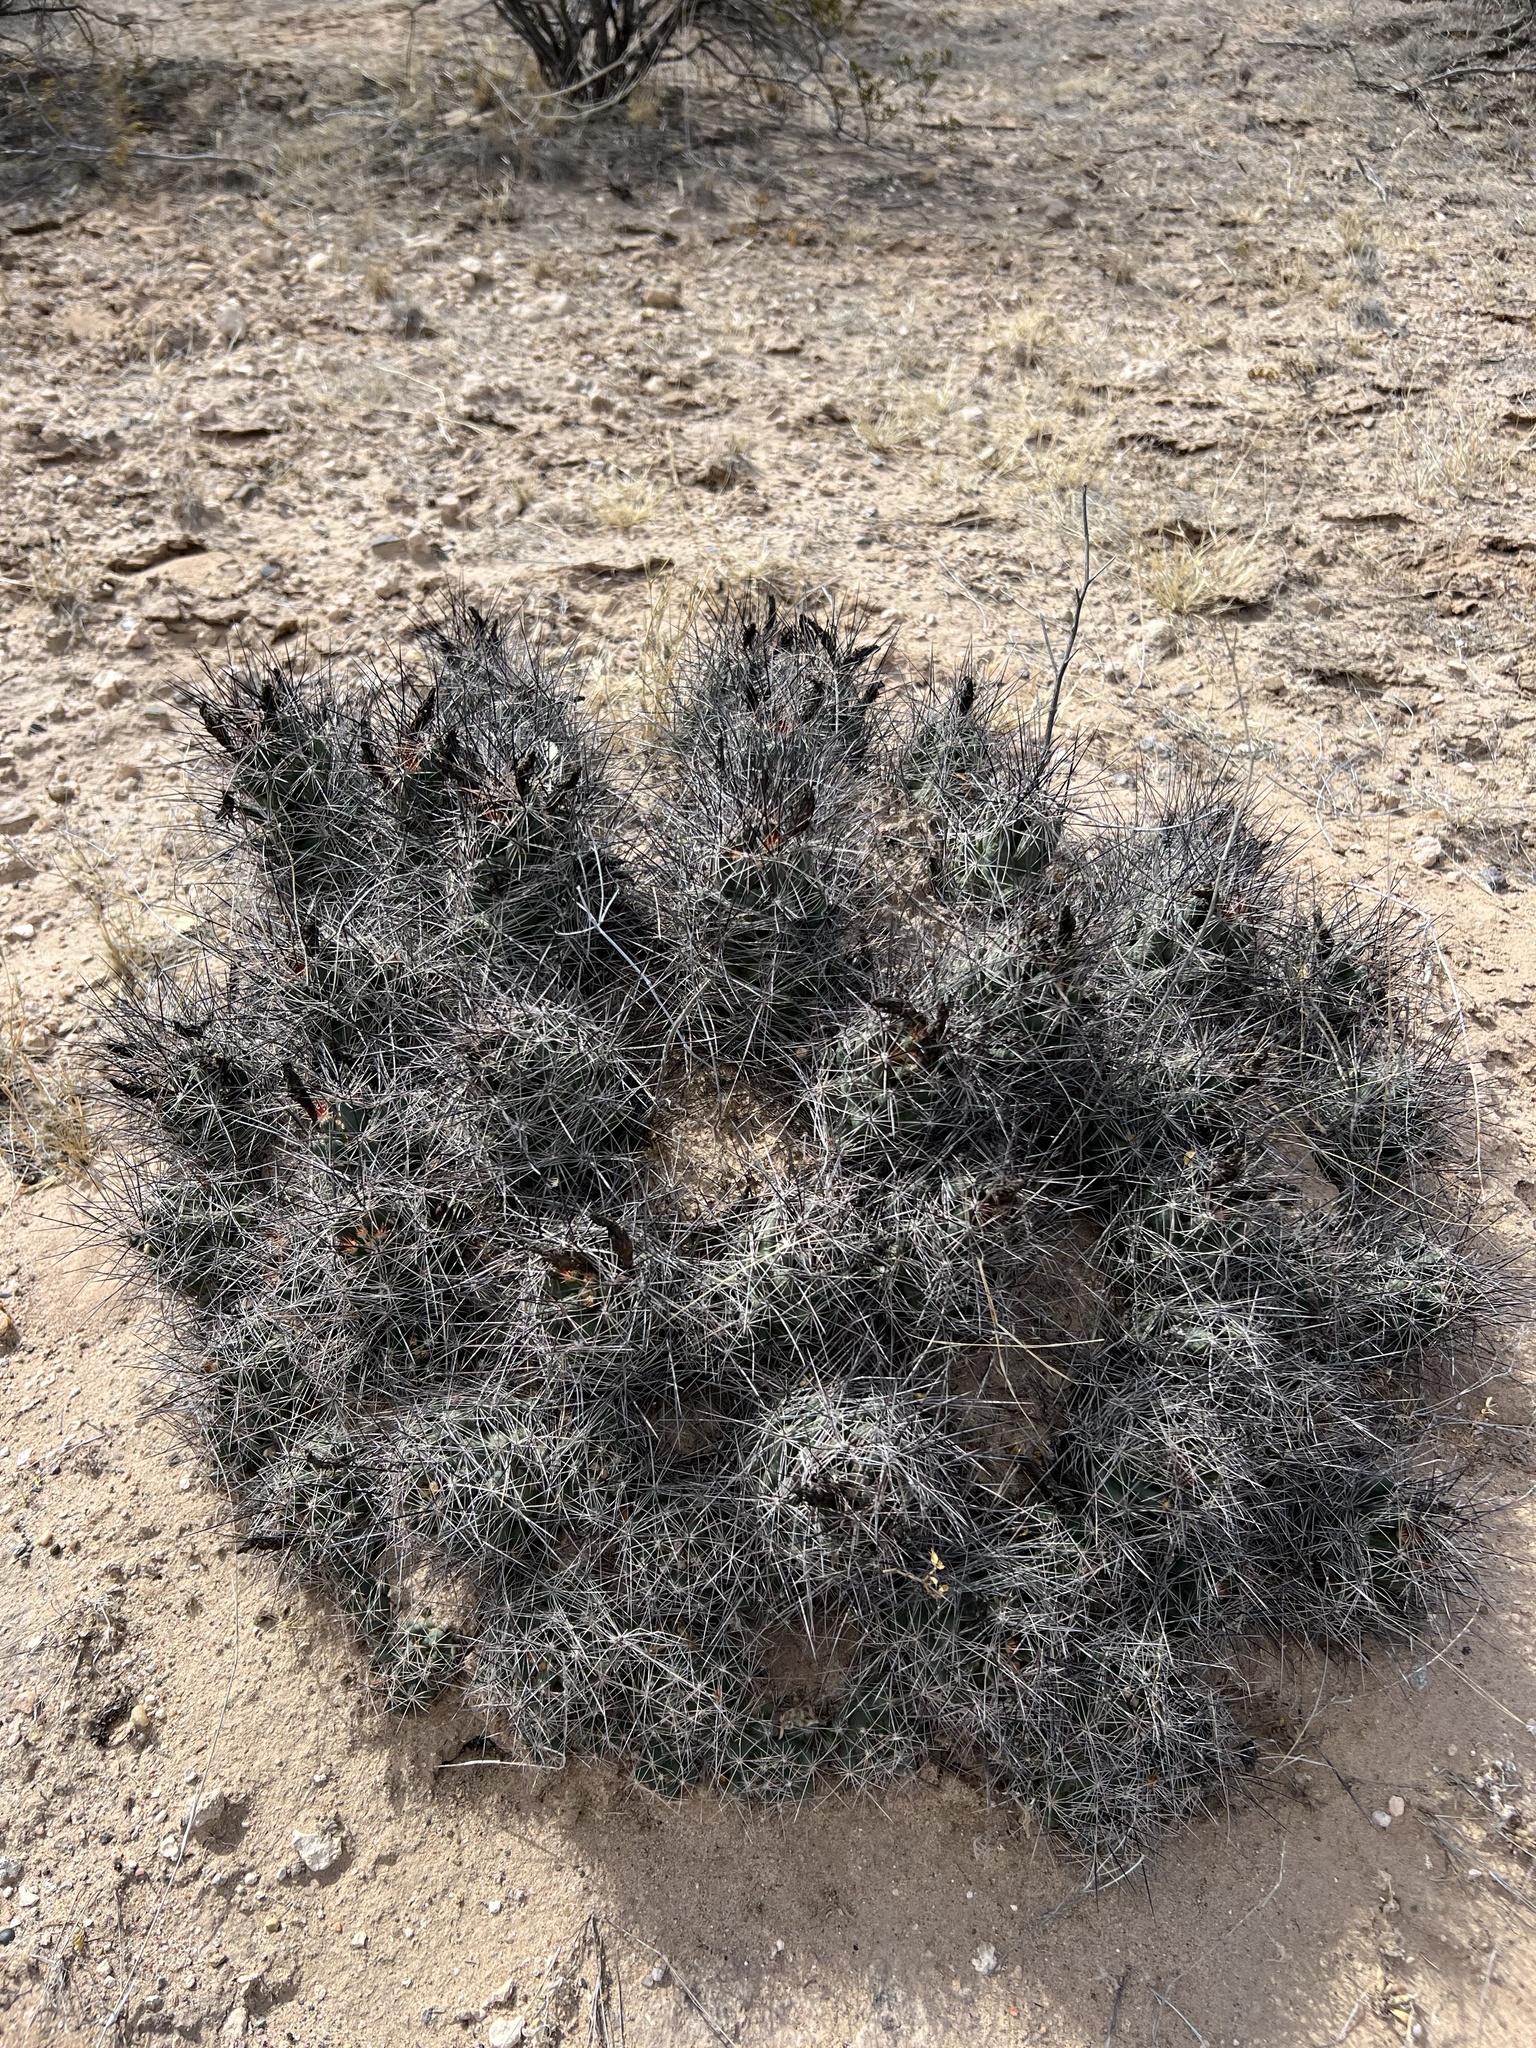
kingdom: Plantae
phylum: Tracheophyta
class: Magnoliopsida
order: Caryophyllales
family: Cactaceae
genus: Coryphantha
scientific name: Coryphantha macromeris
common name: Nipple beehive cactus
